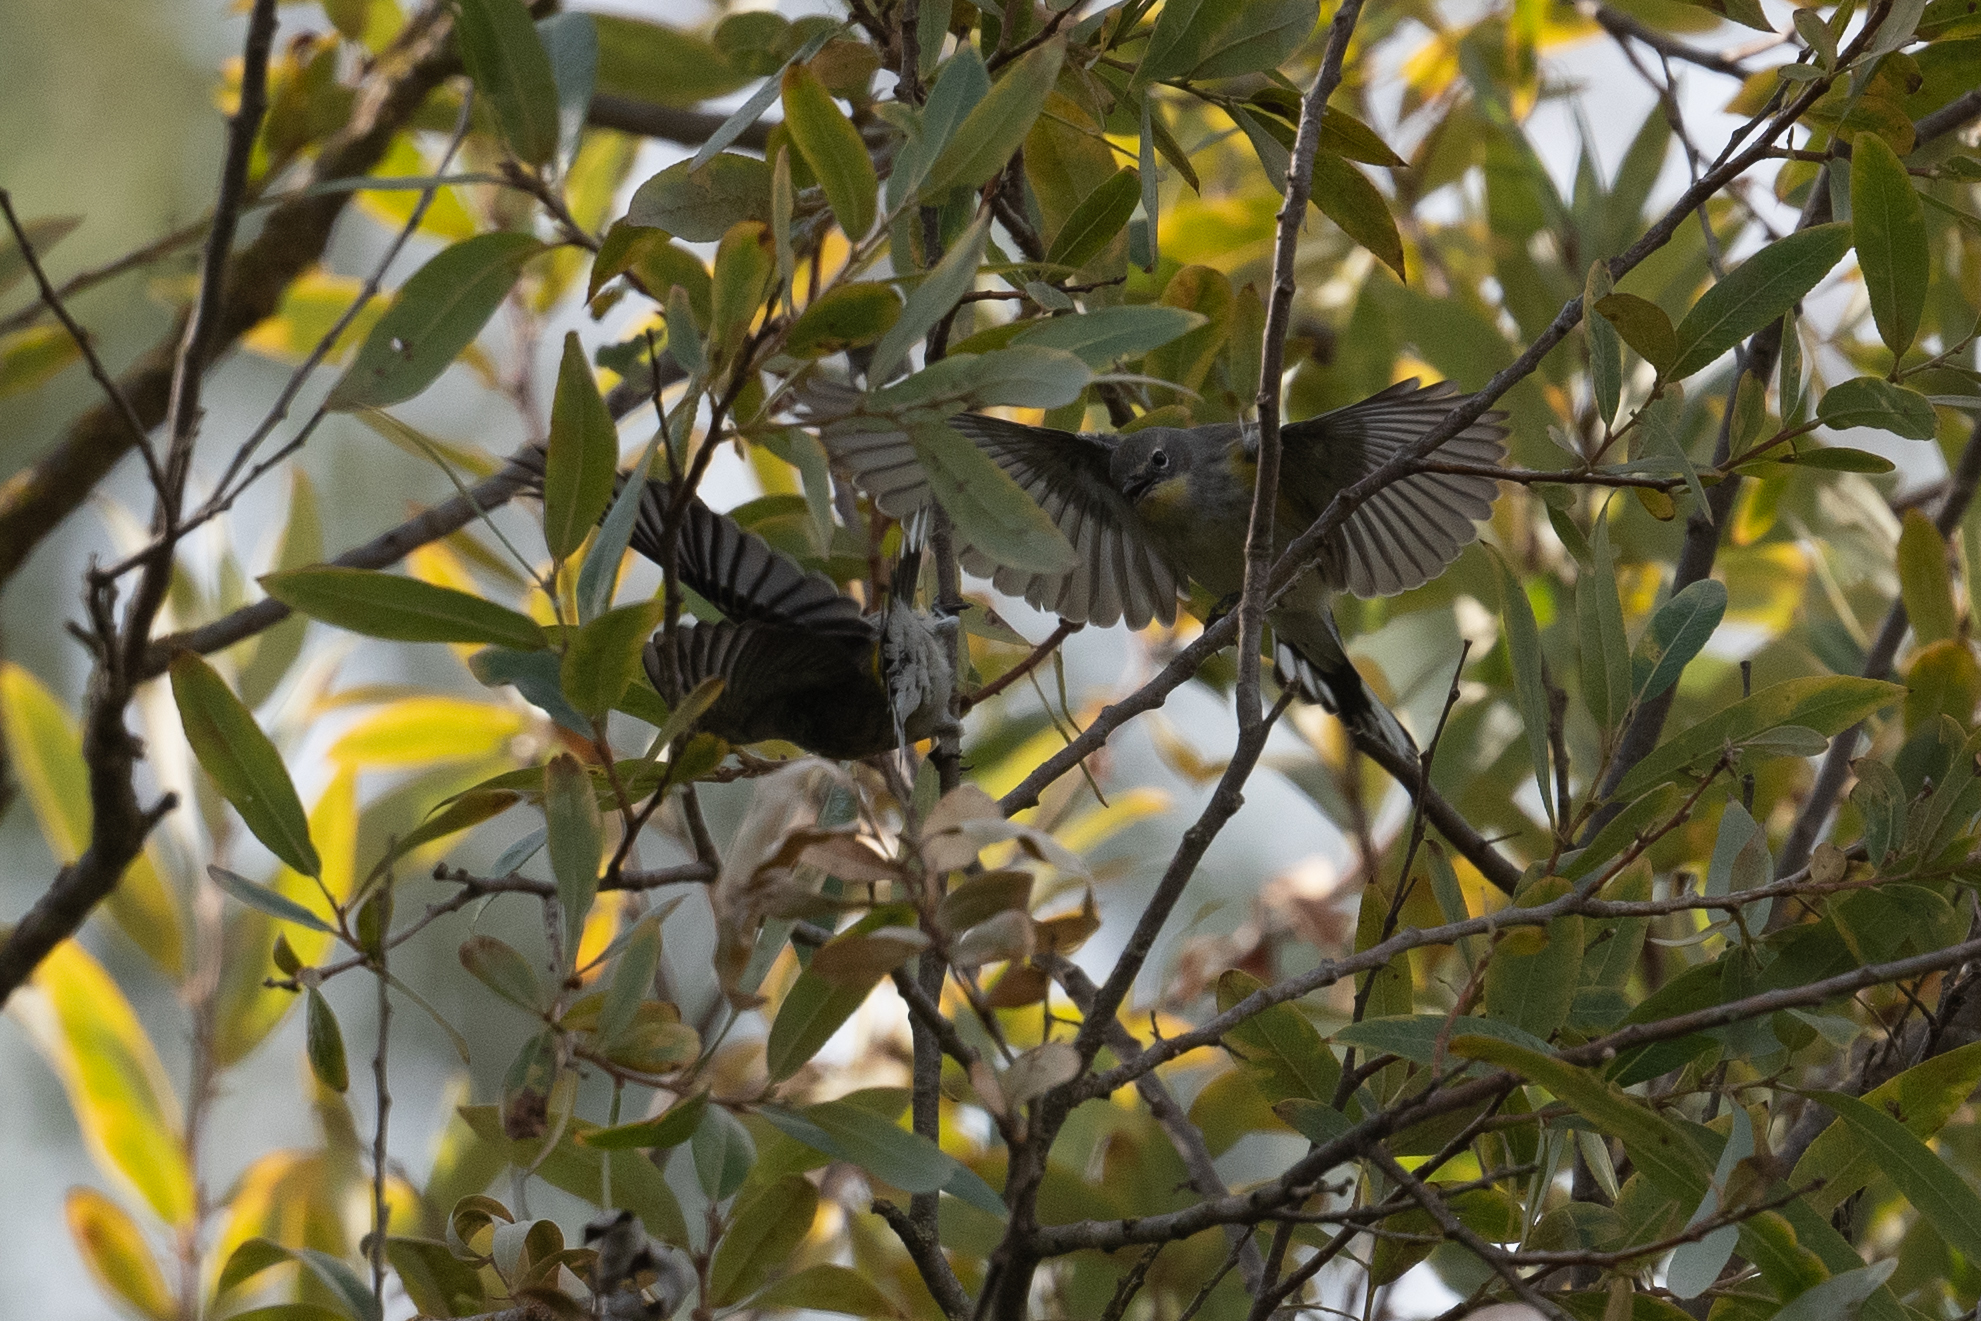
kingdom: Animalia
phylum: Chordata
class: Aves
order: Passeriformes
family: Parulidae
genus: Setophaga
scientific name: Setophaga coronata
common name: Myrtle warbler
